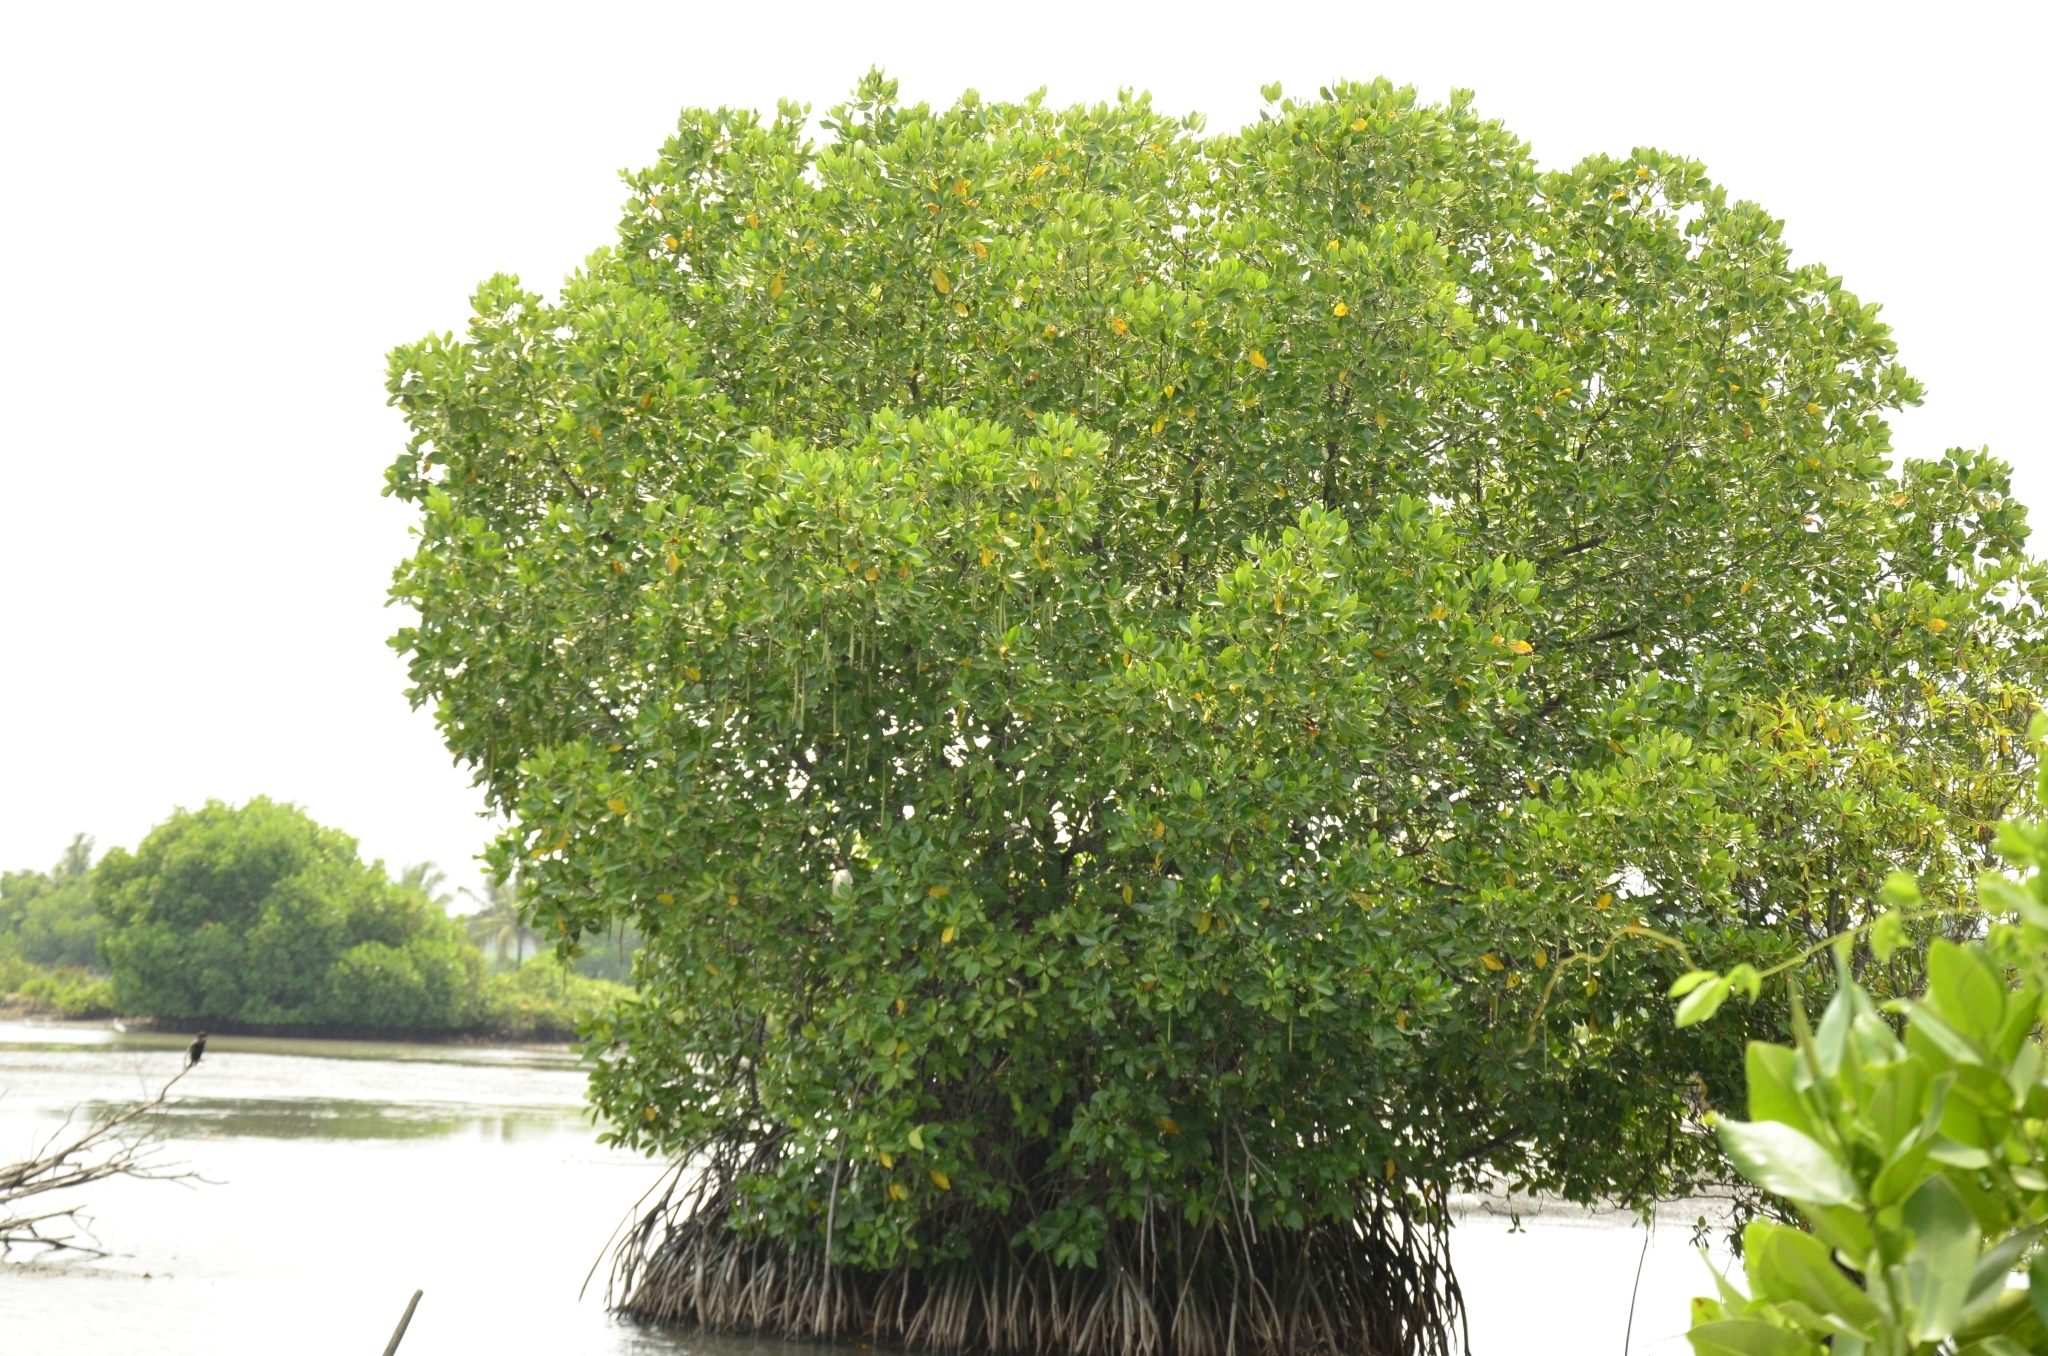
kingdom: Plantae
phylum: Tracheophyta
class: Magnoliopsida
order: Malpighiales
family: Rhizophoraceae
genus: Rhizophora
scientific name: Rhizophora mangle
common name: Red mangrove
